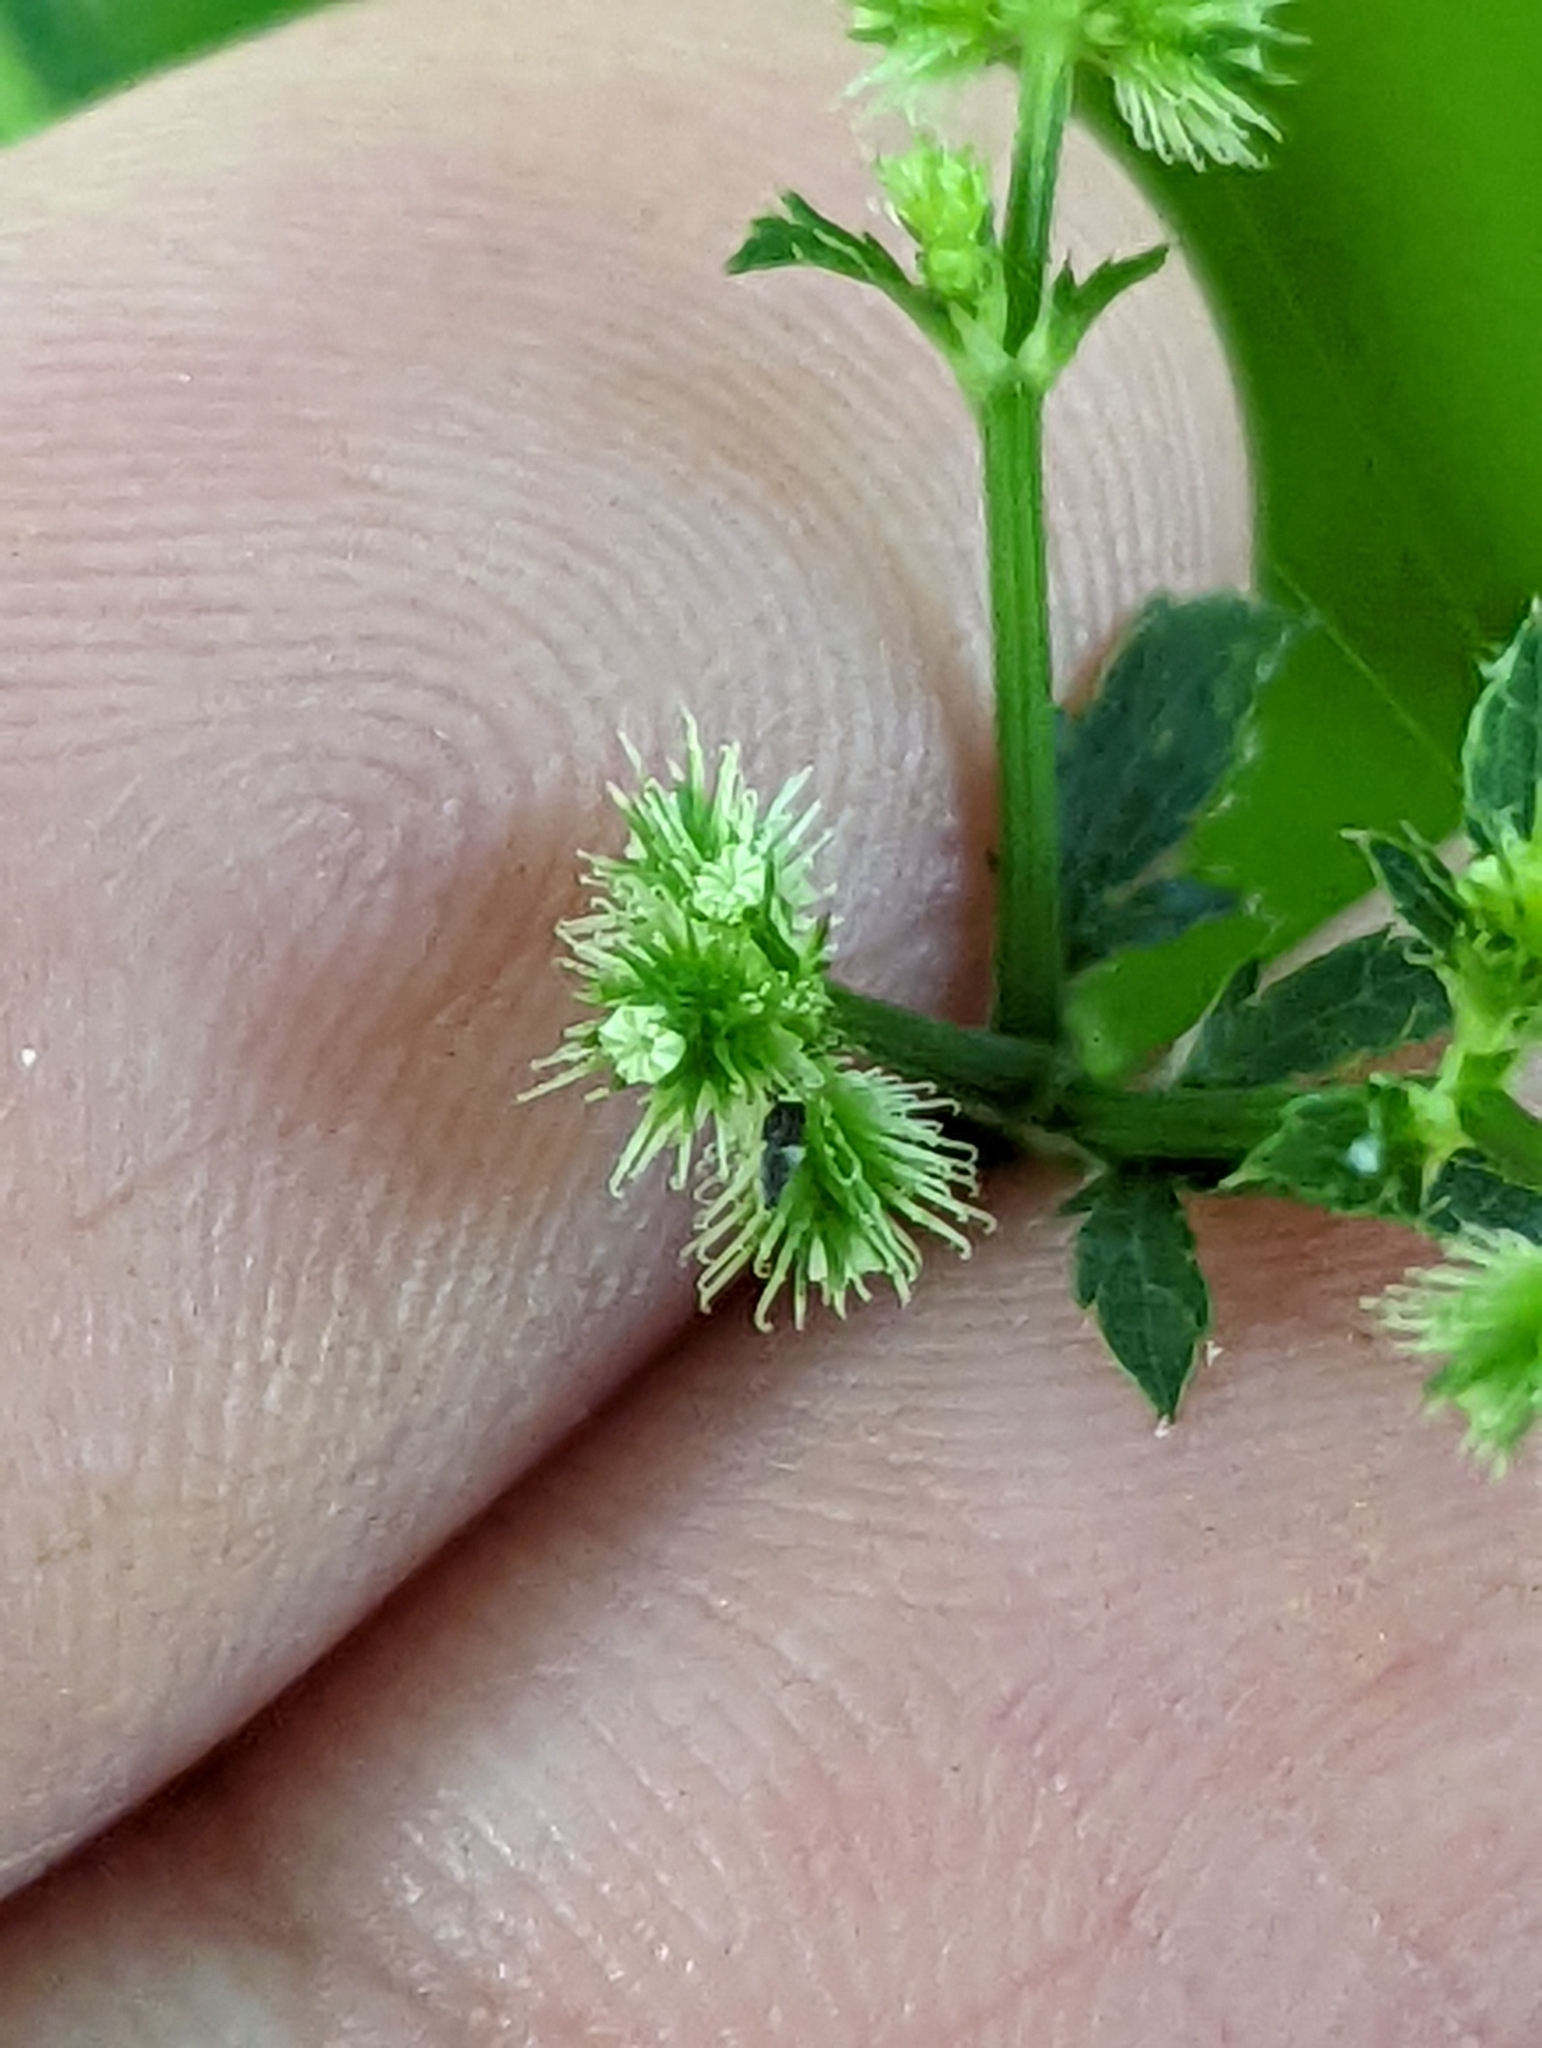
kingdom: Plantae
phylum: Tracheophyta
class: Magnoliopsida
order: Apiales
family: Apiaceae
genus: Sanicula
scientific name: Sanicula canadensis
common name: Canada sanicle
